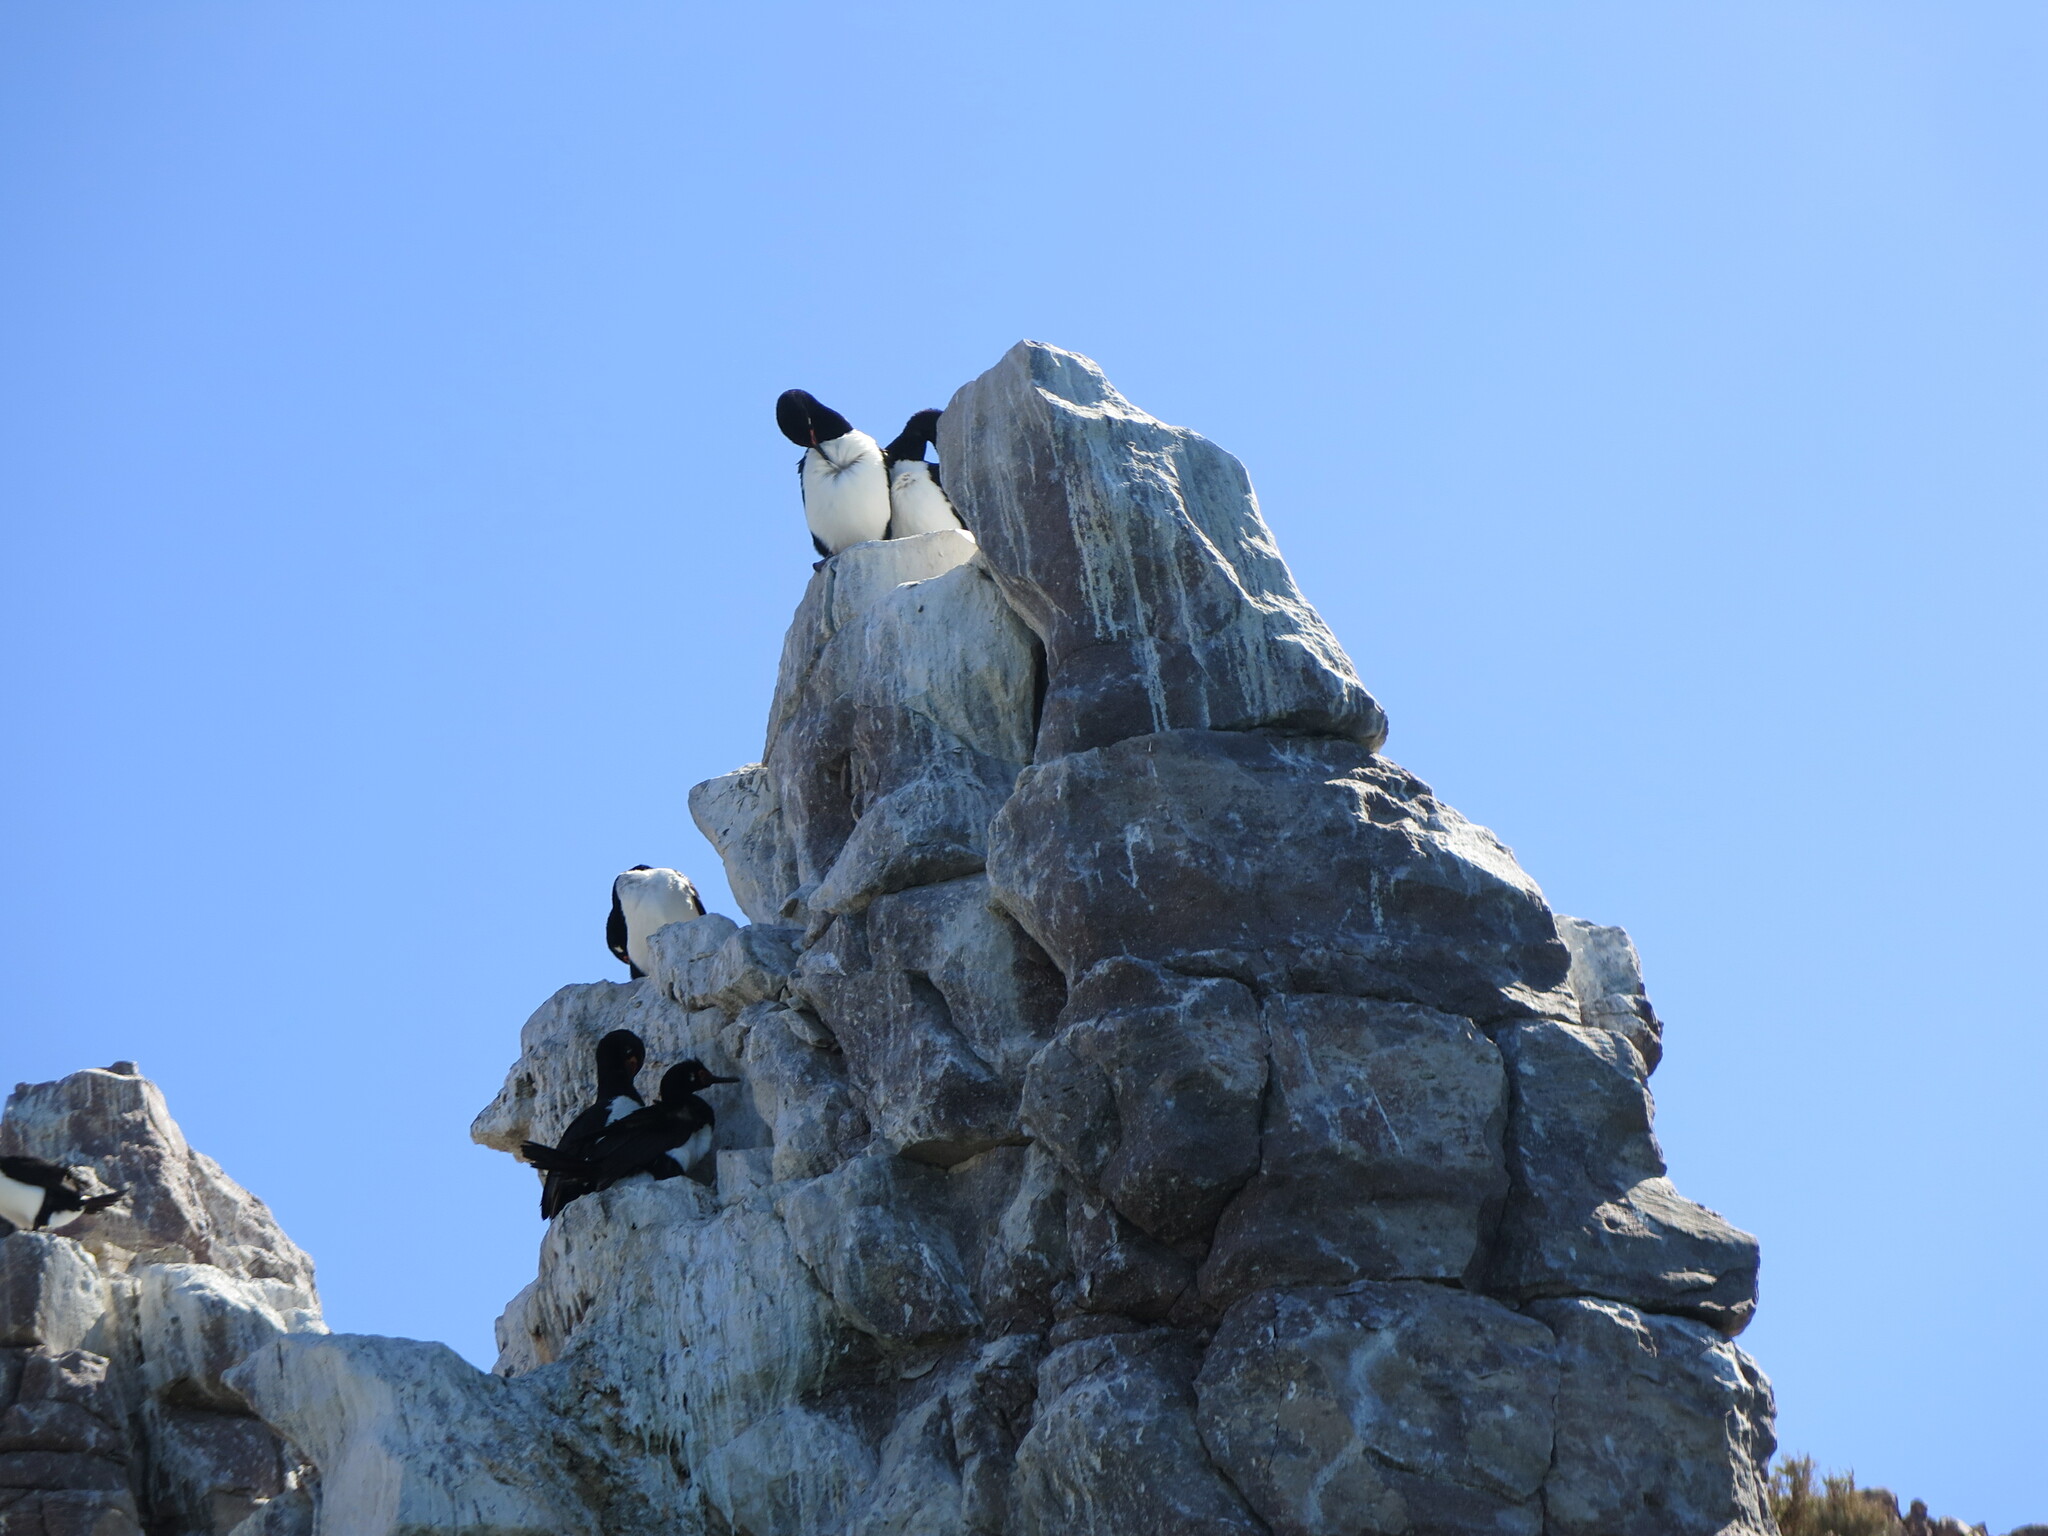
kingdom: Animalia
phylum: Chordata
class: Aves
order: Suliformes
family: Phalacrocoracidae
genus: Phalacrocorax
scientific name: Phalacrocorax magellanicus
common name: Rock shag
